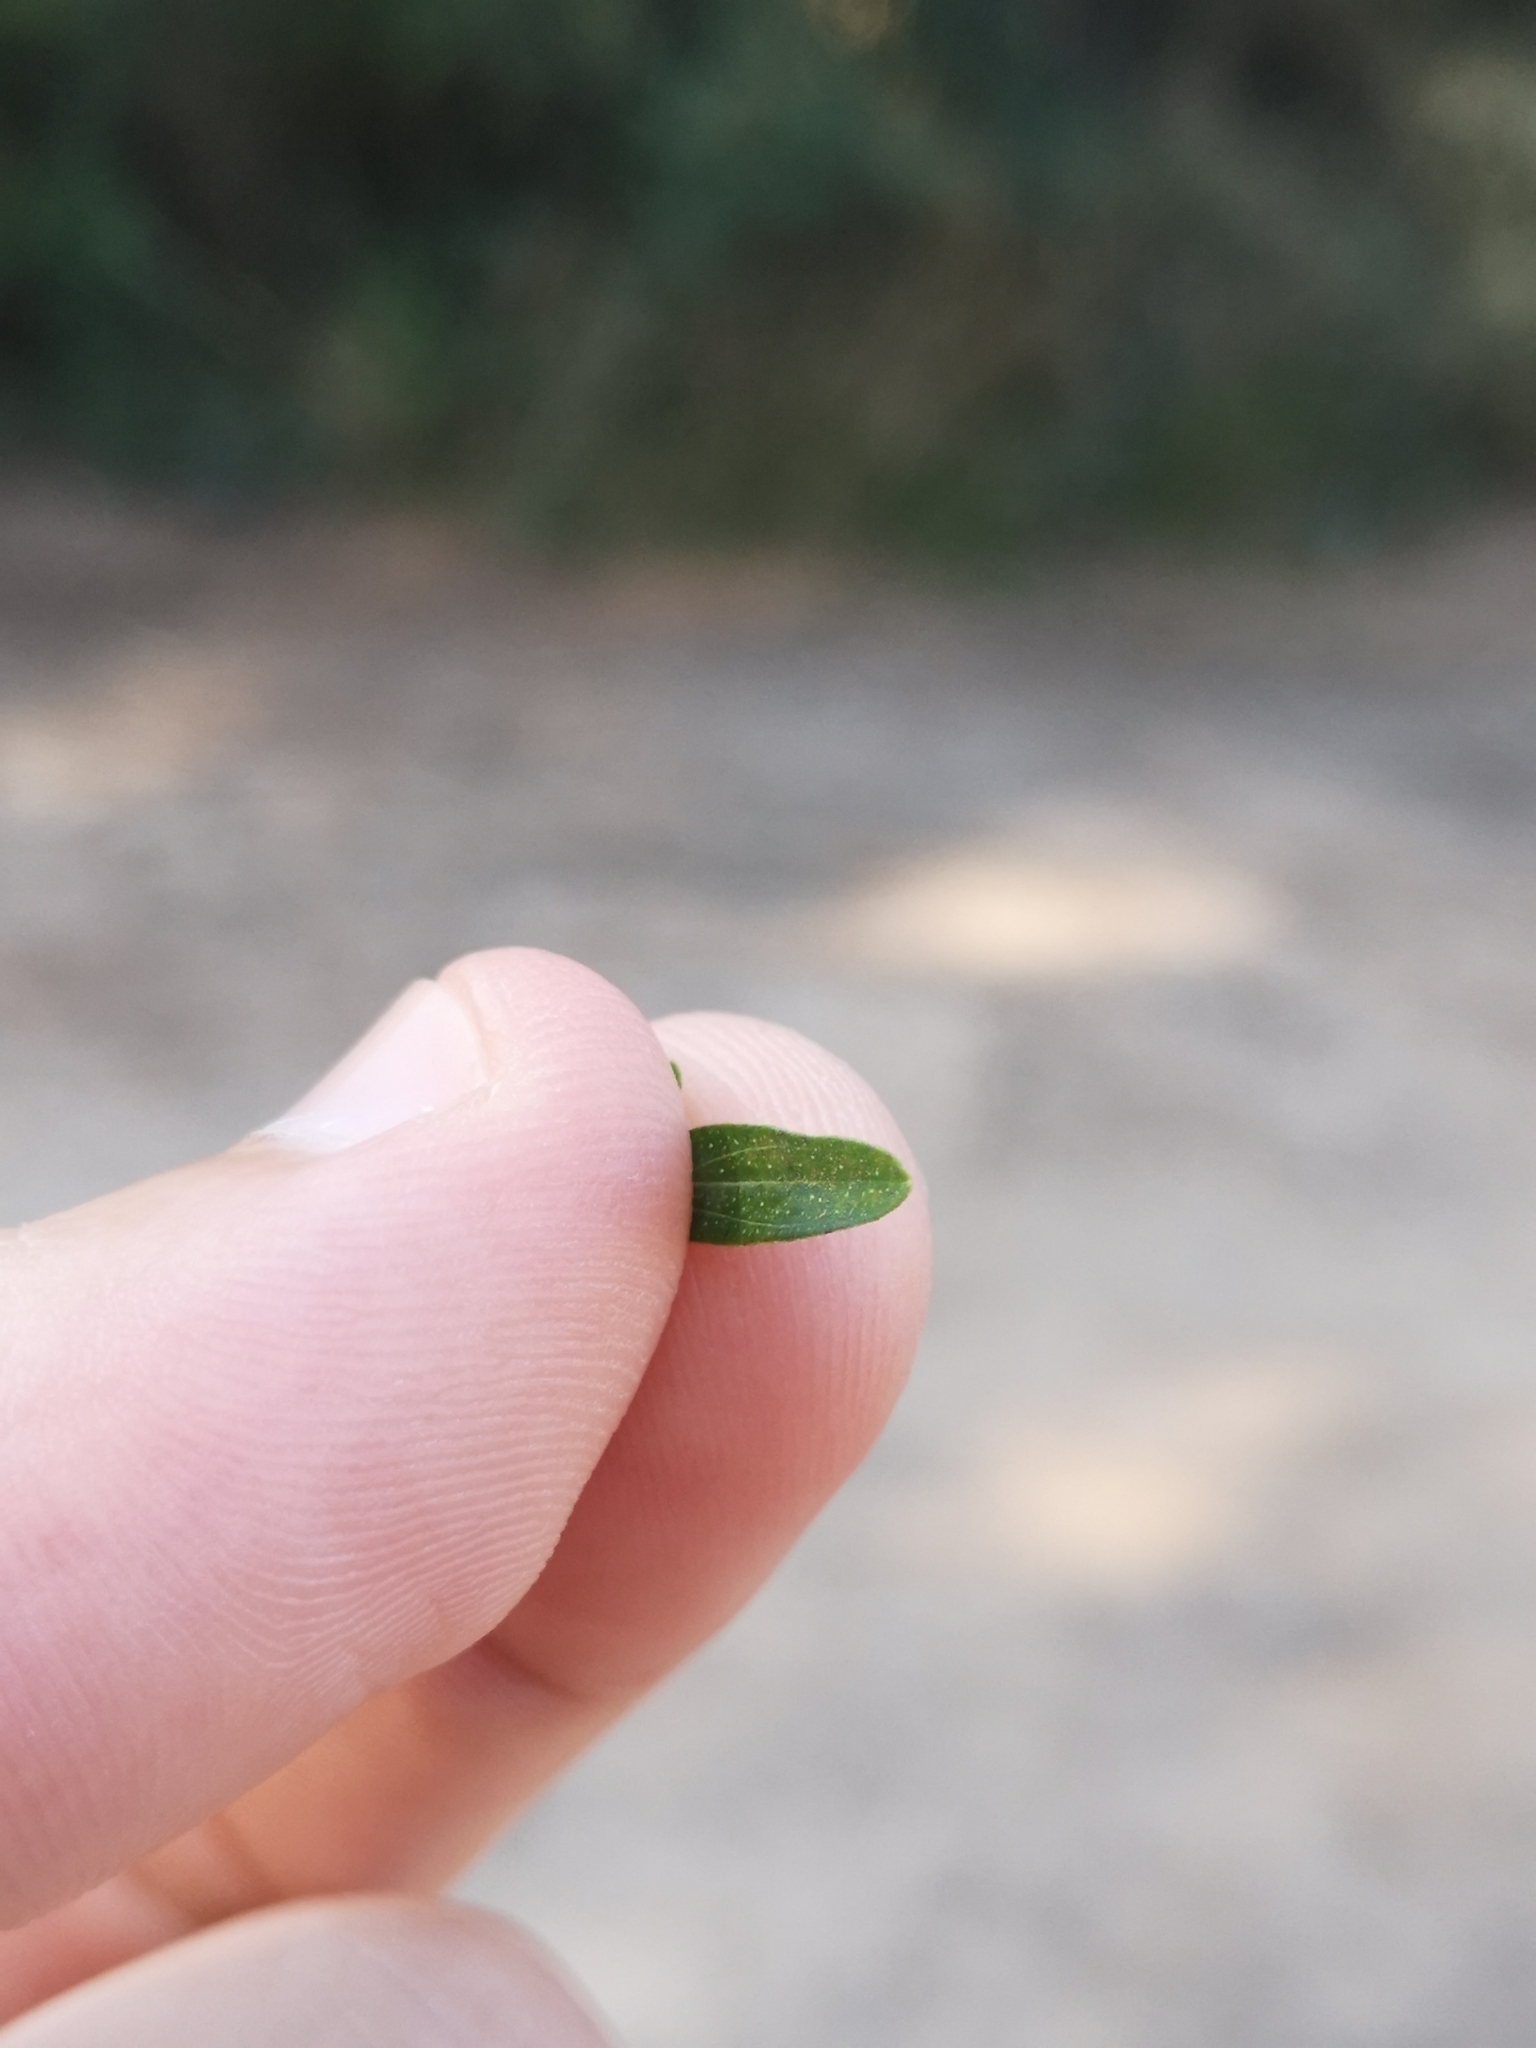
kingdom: Plantae
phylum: Tracheophyta
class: Magnoliopsida
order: Malpighiales
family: Hypericaceae
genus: Hypericum
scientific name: Hypericum perforatum
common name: Common st. johnswort
